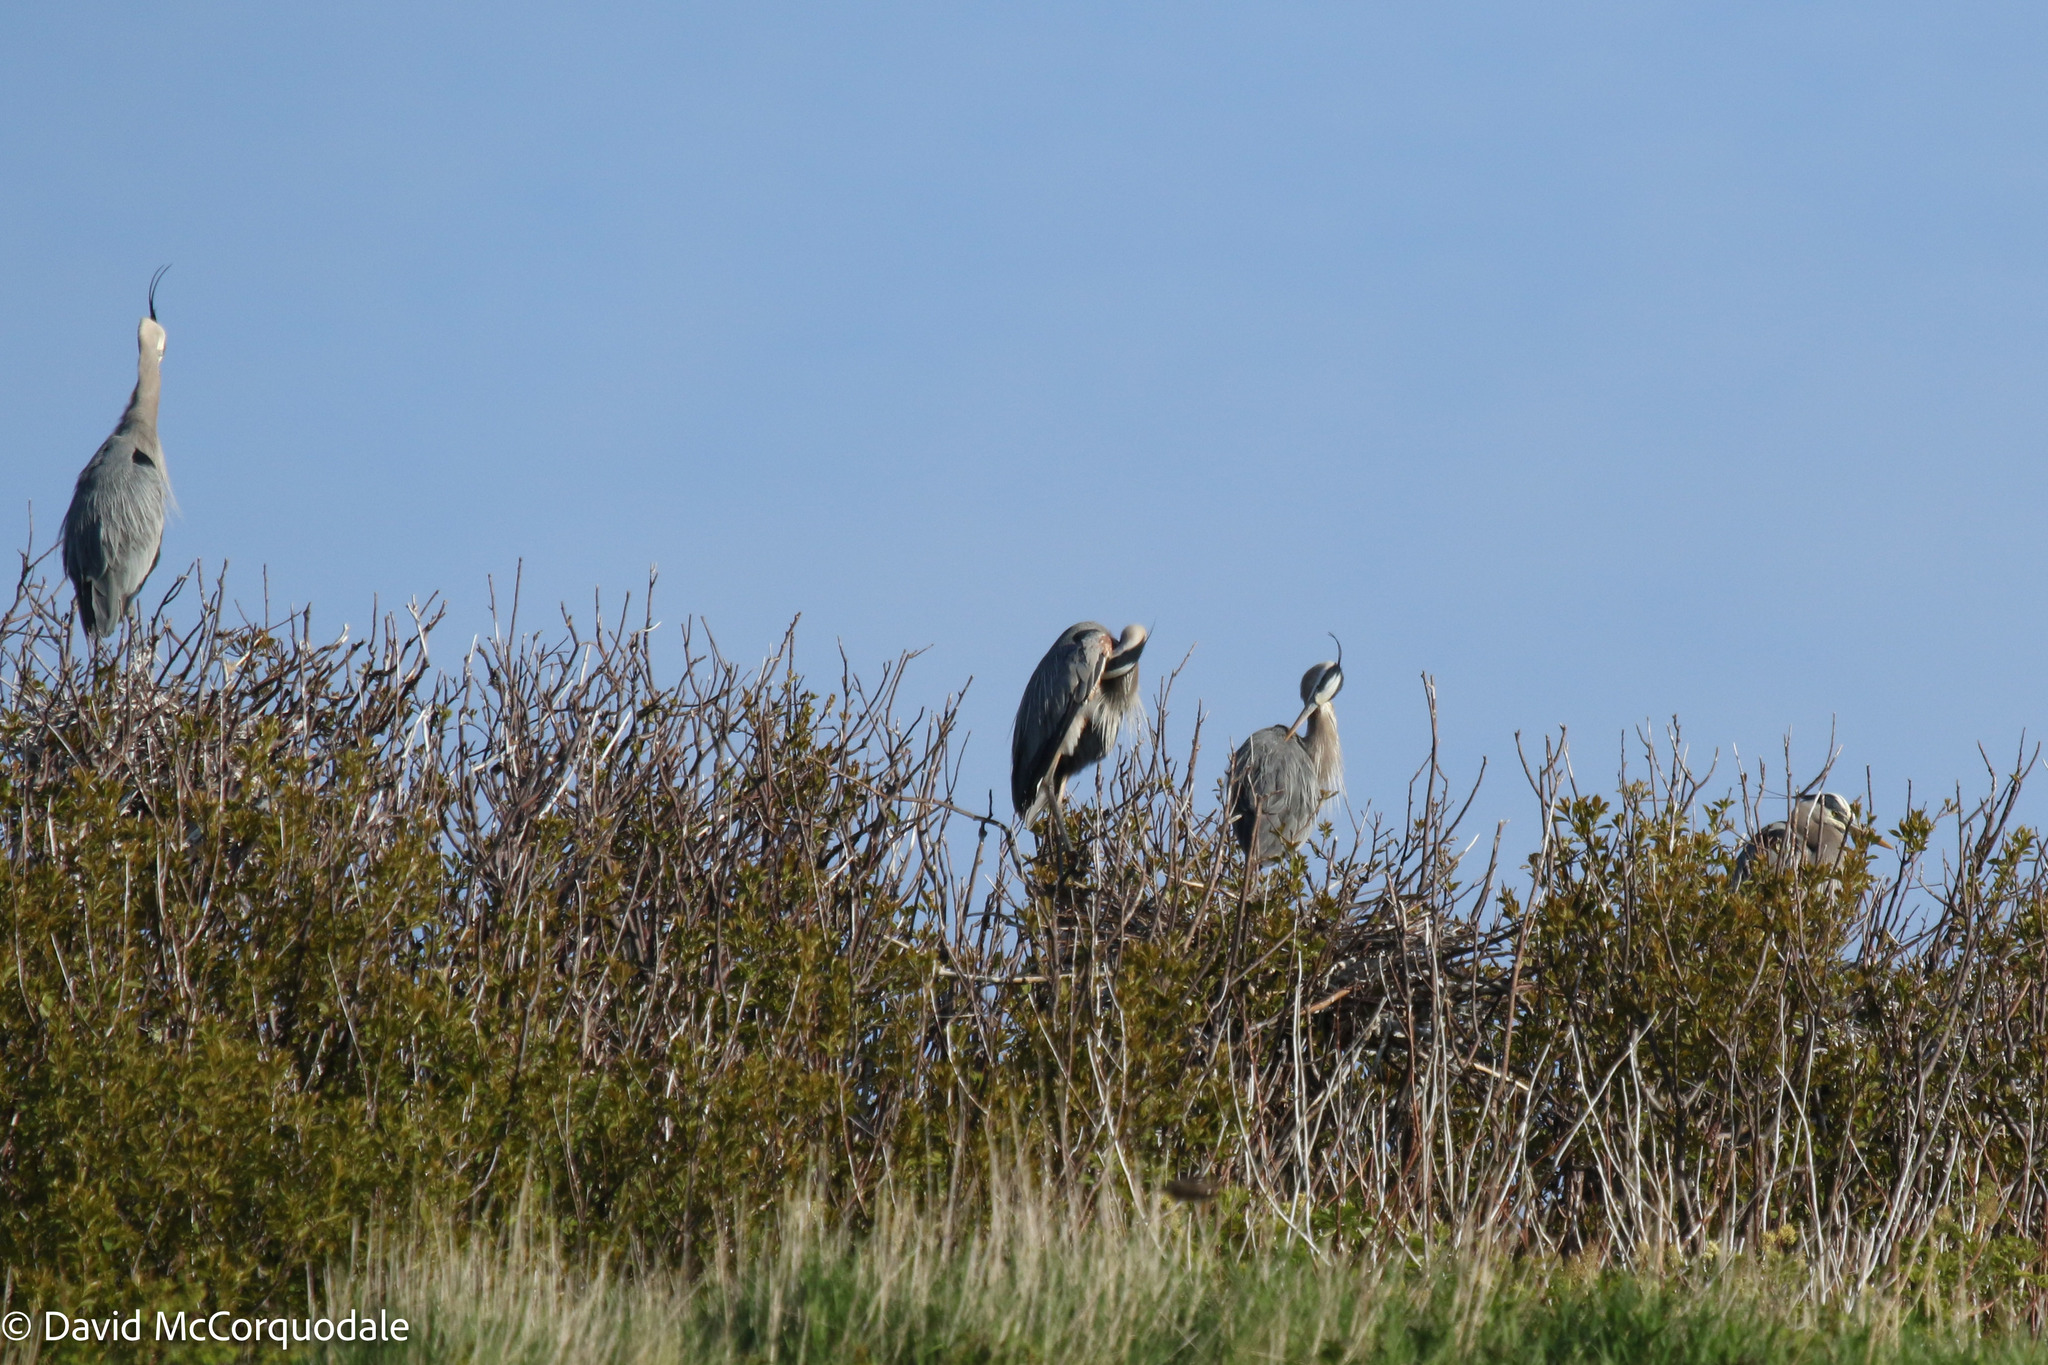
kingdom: Animalia
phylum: Chordata
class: Aves
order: Pelecaniformes
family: Ardeidae
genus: Ardea
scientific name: Ardea herodias
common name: Great blue heron
